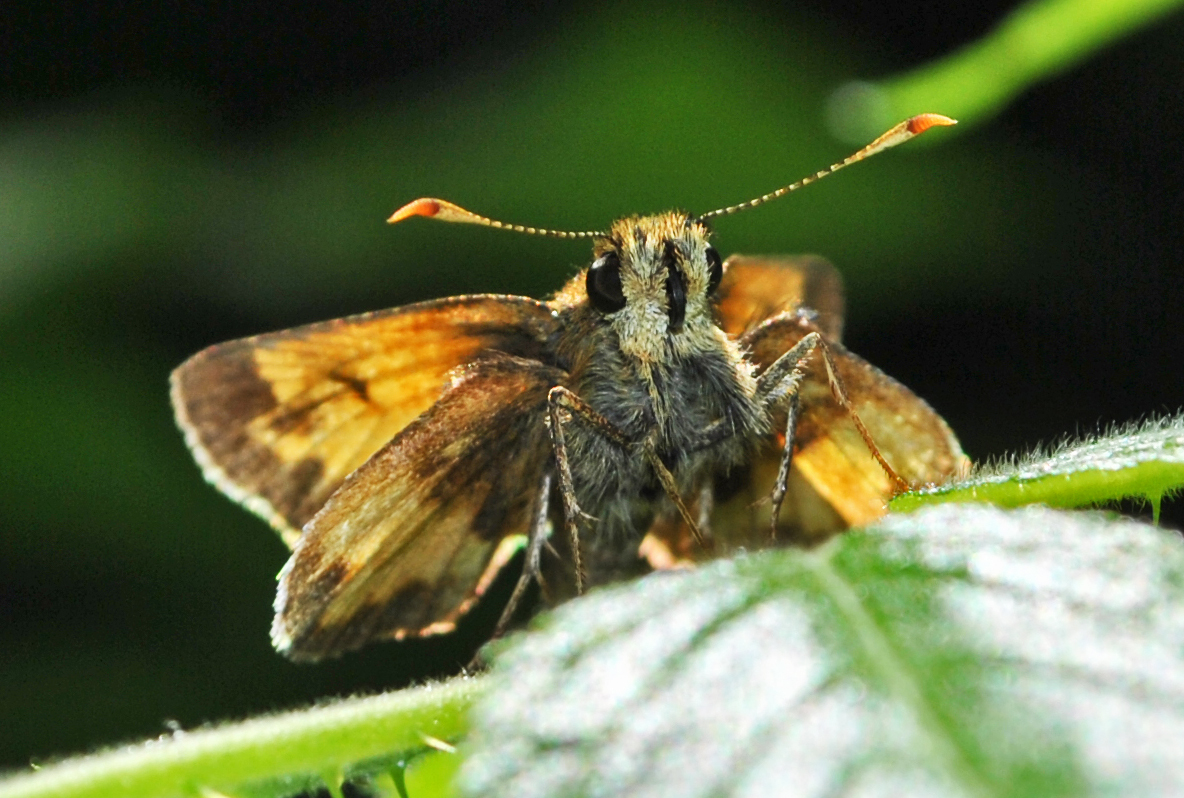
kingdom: Animalia
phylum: Arthropoda
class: Insecta
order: Lepidoptera
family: Hesperiidae
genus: Lon
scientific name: Lon hobomok
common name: Hobomok skipper
